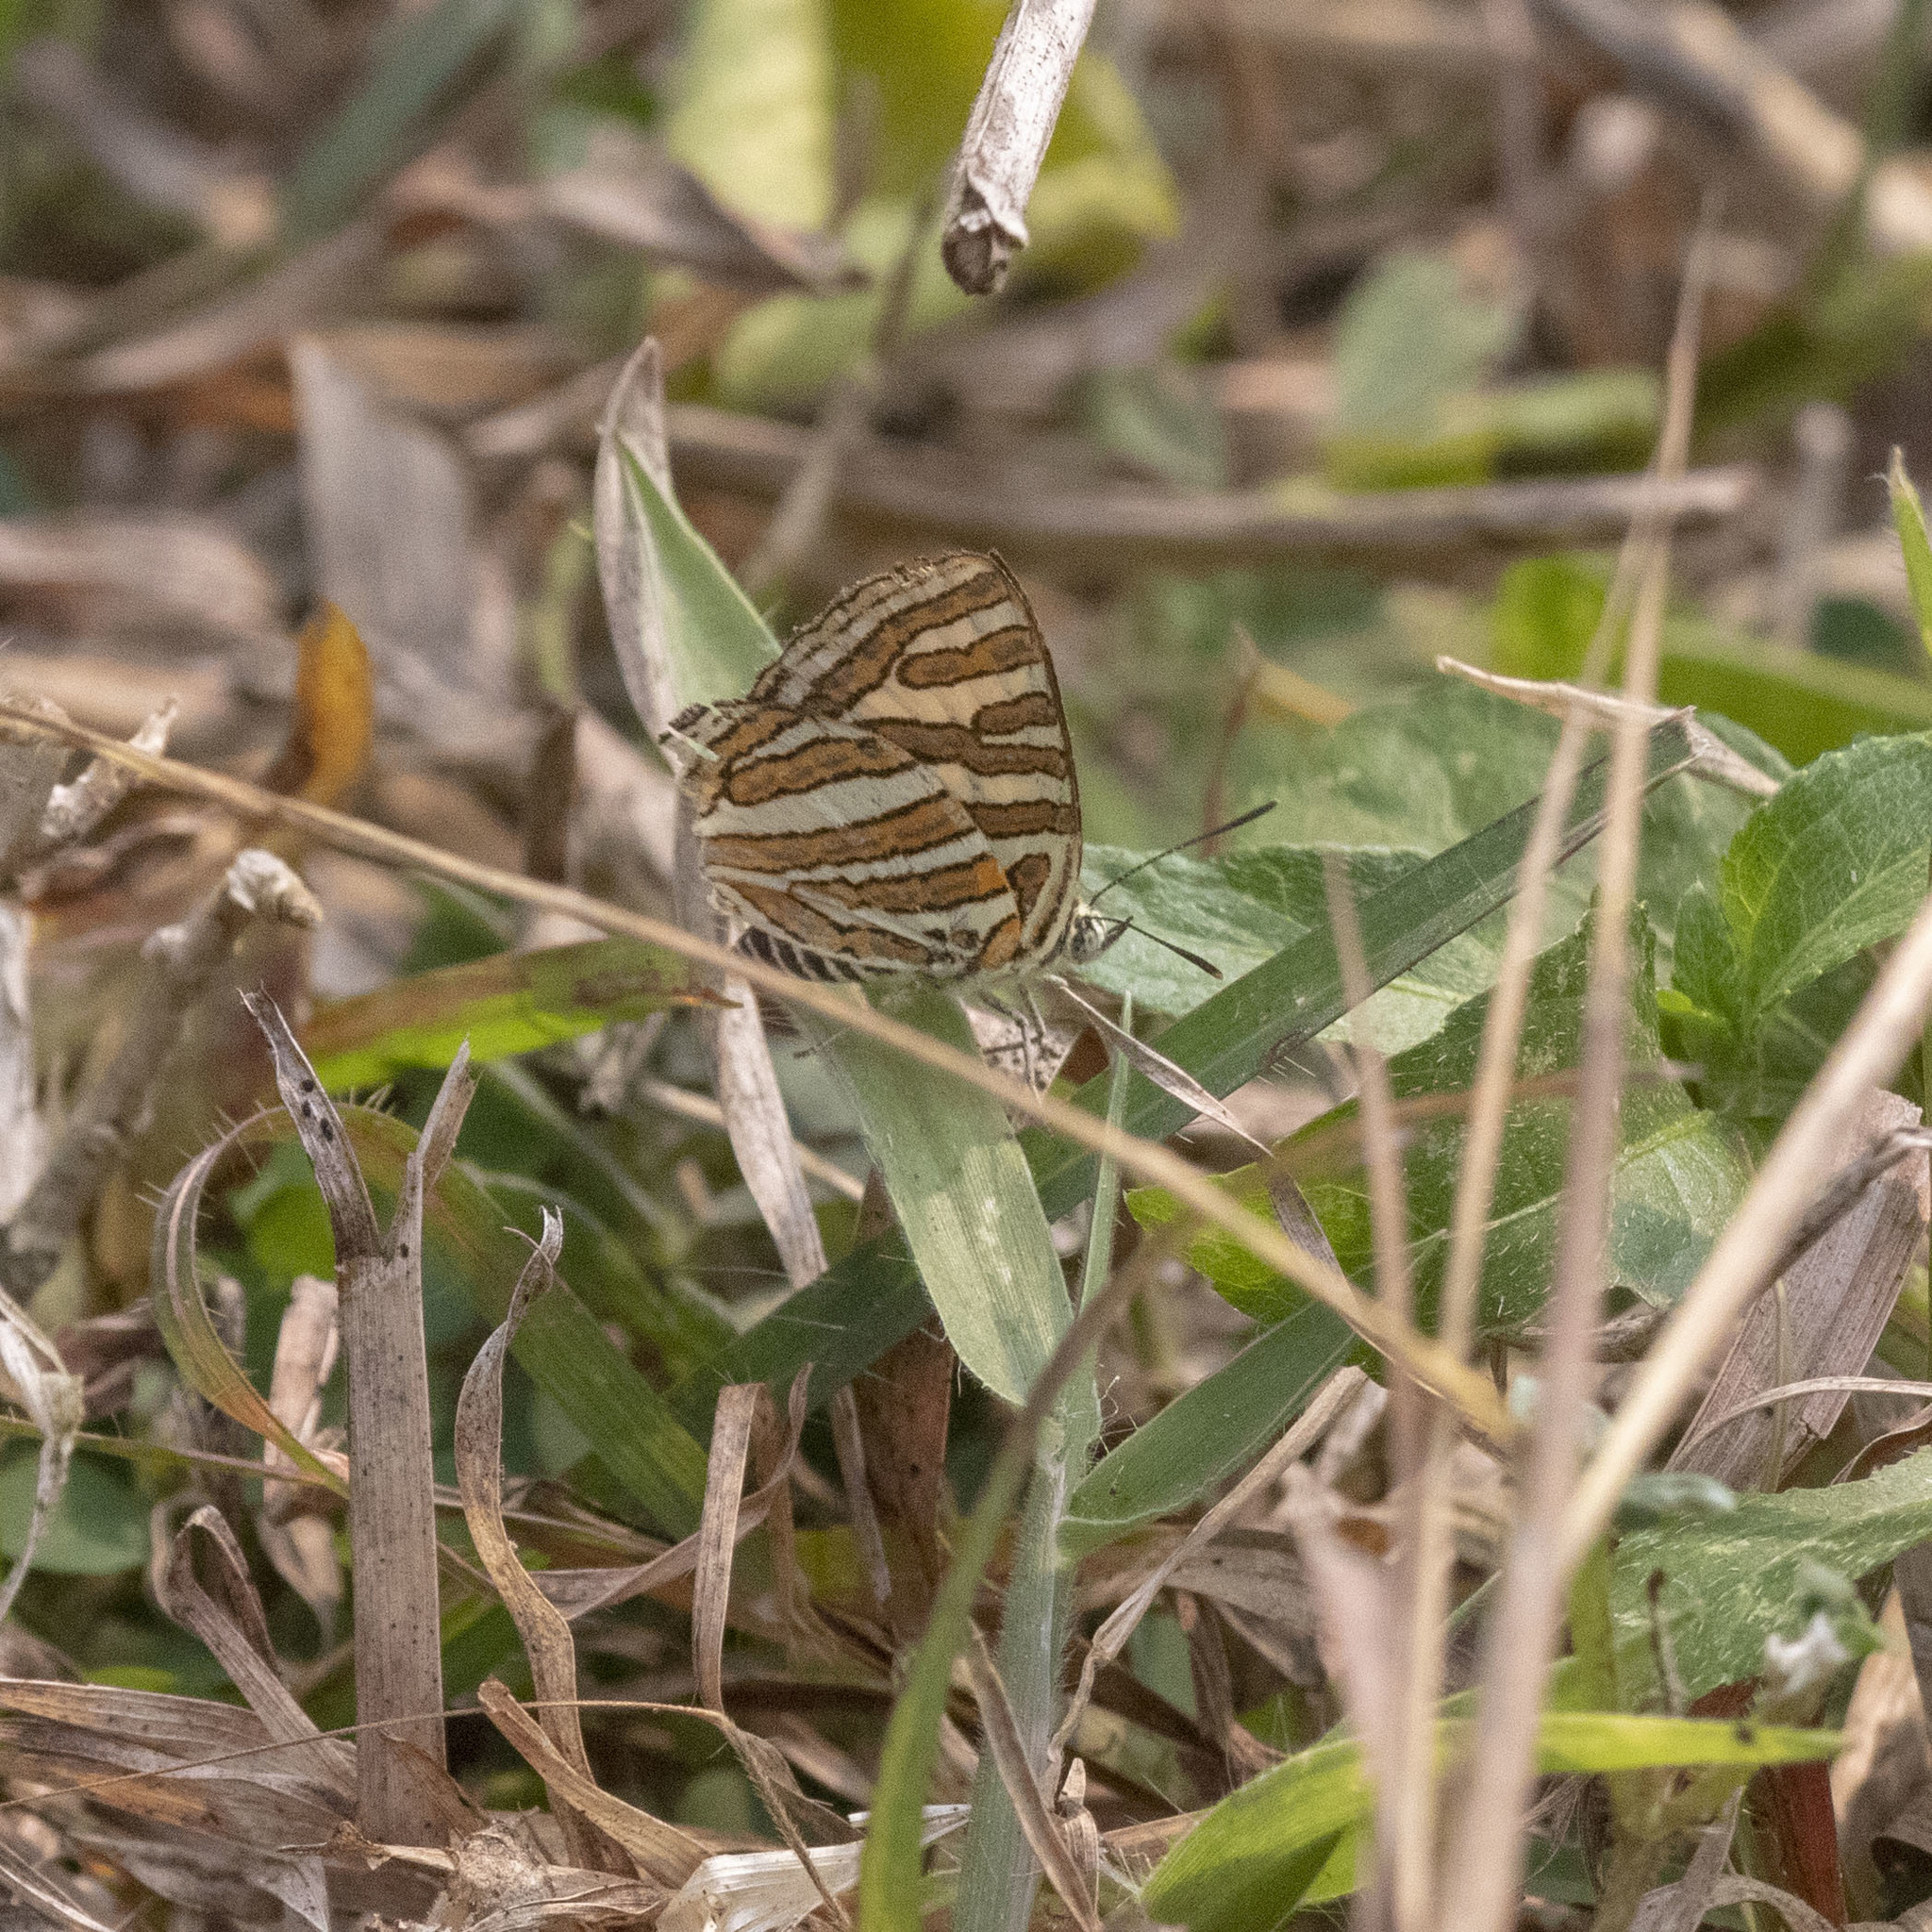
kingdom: Animalia
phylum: Arthropoda
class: Insecta
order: Lepidoptera
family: Lycaenidae
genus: Cigaritis
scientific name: Cigaritis vulcanus
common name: Common silverline
